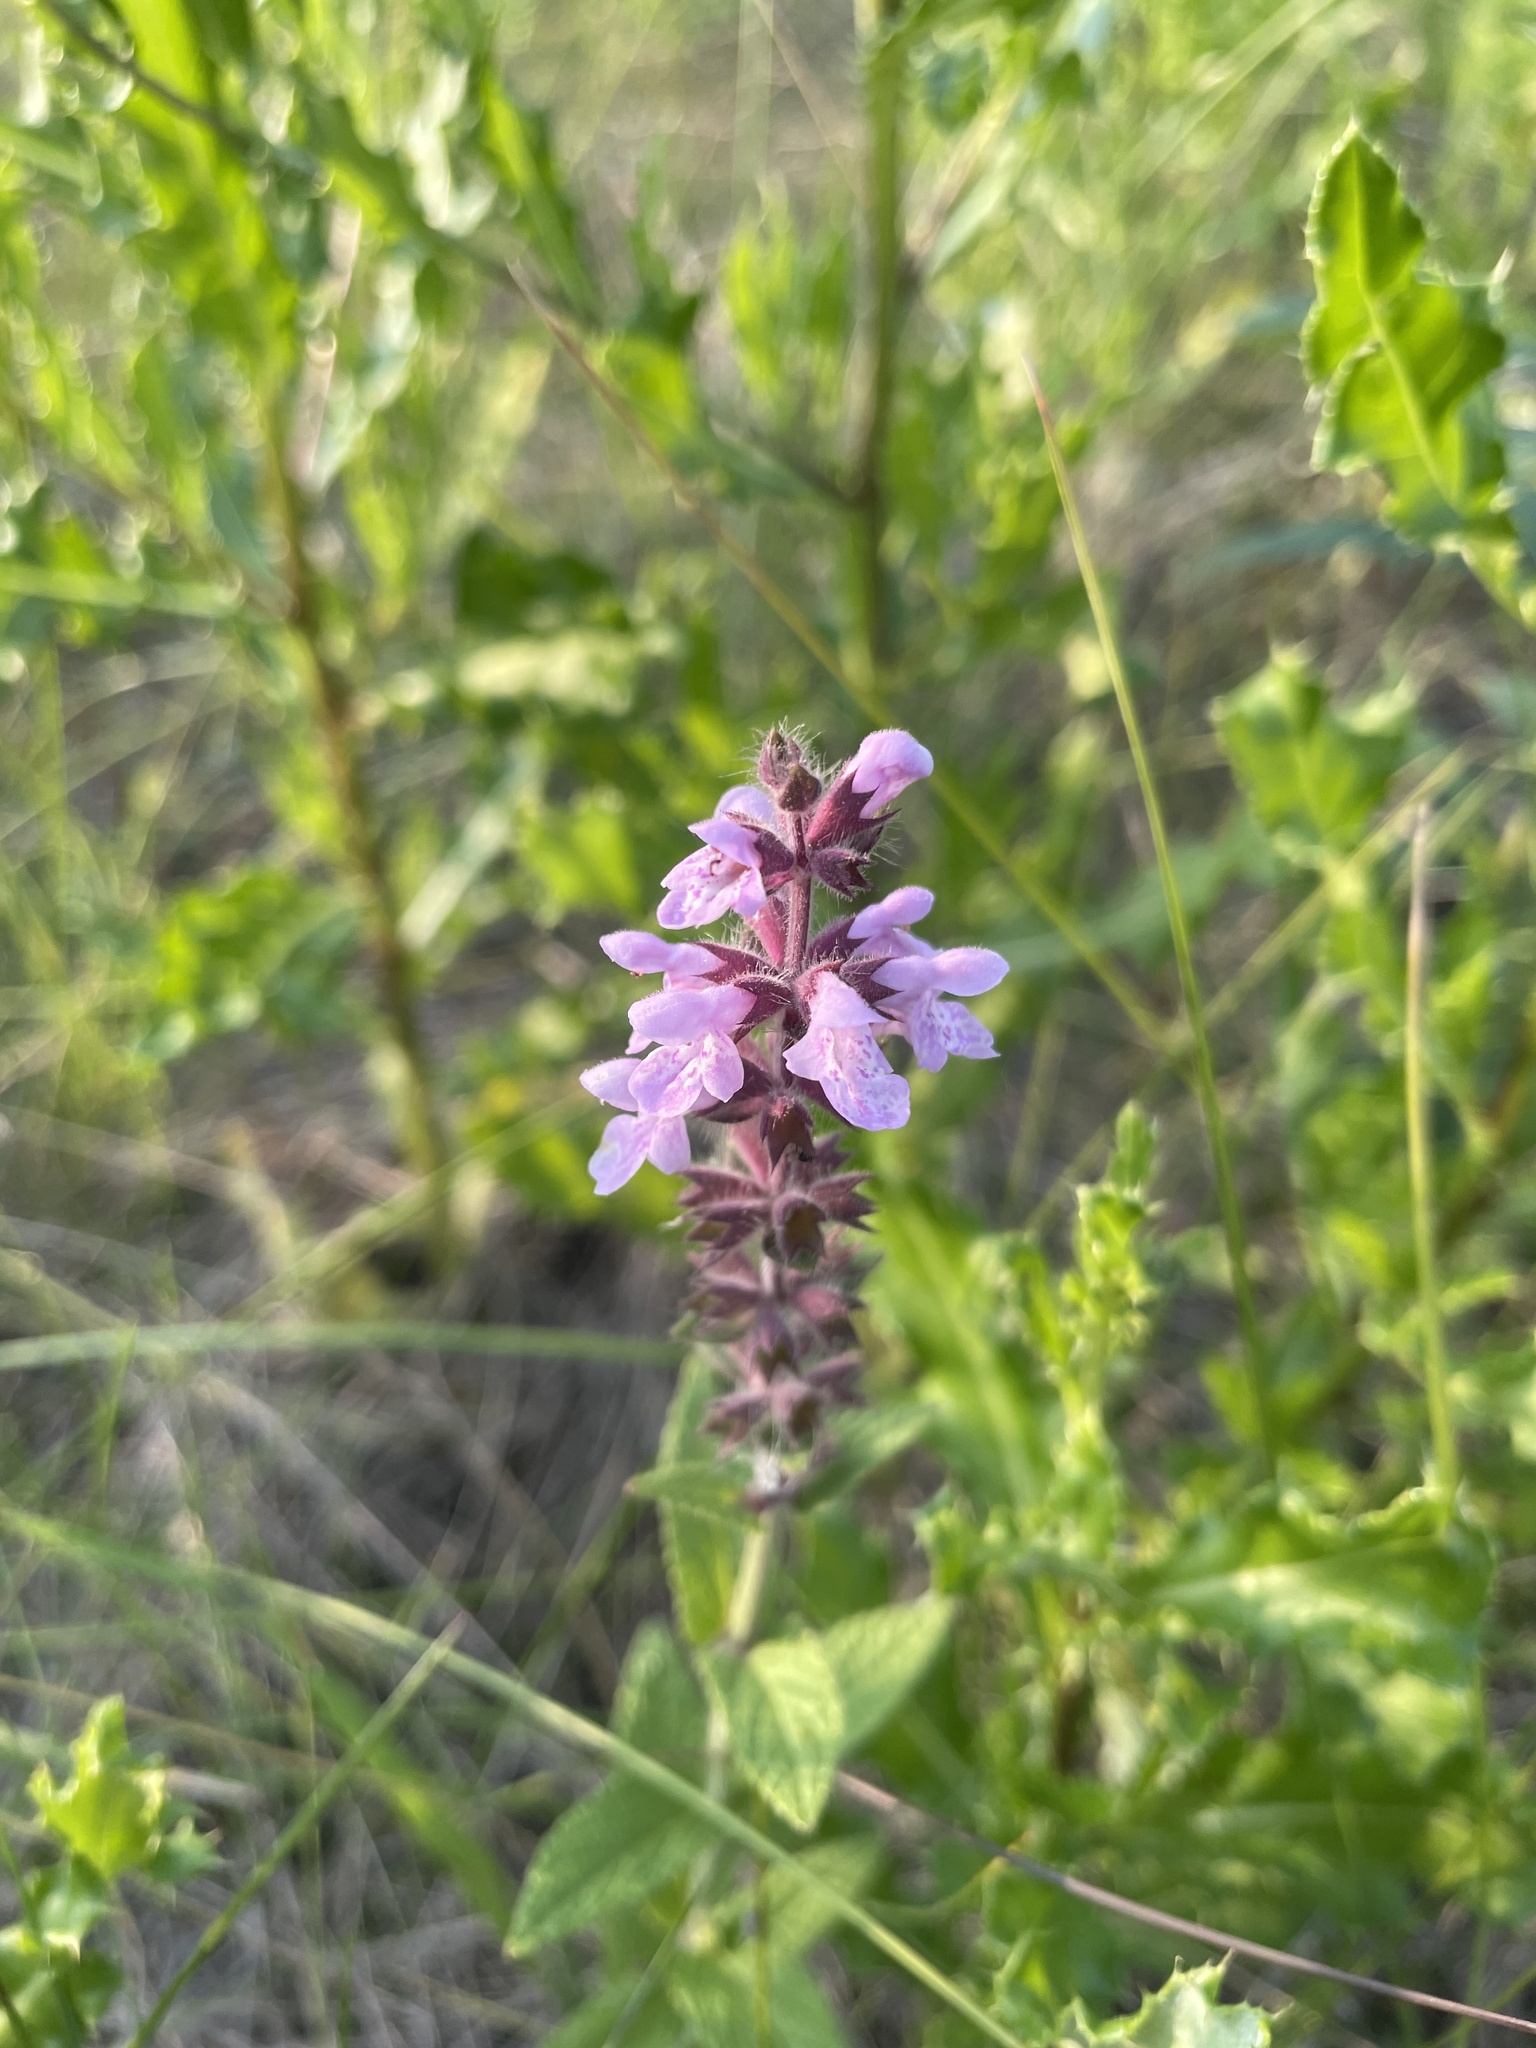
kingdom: Plantae
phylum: Tracheophyta
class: Magnoliopsida
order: Lamiales
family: Lamiaceae
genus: Stachys
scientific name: Stachys pilosa
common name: Hairy hedge-nettle
